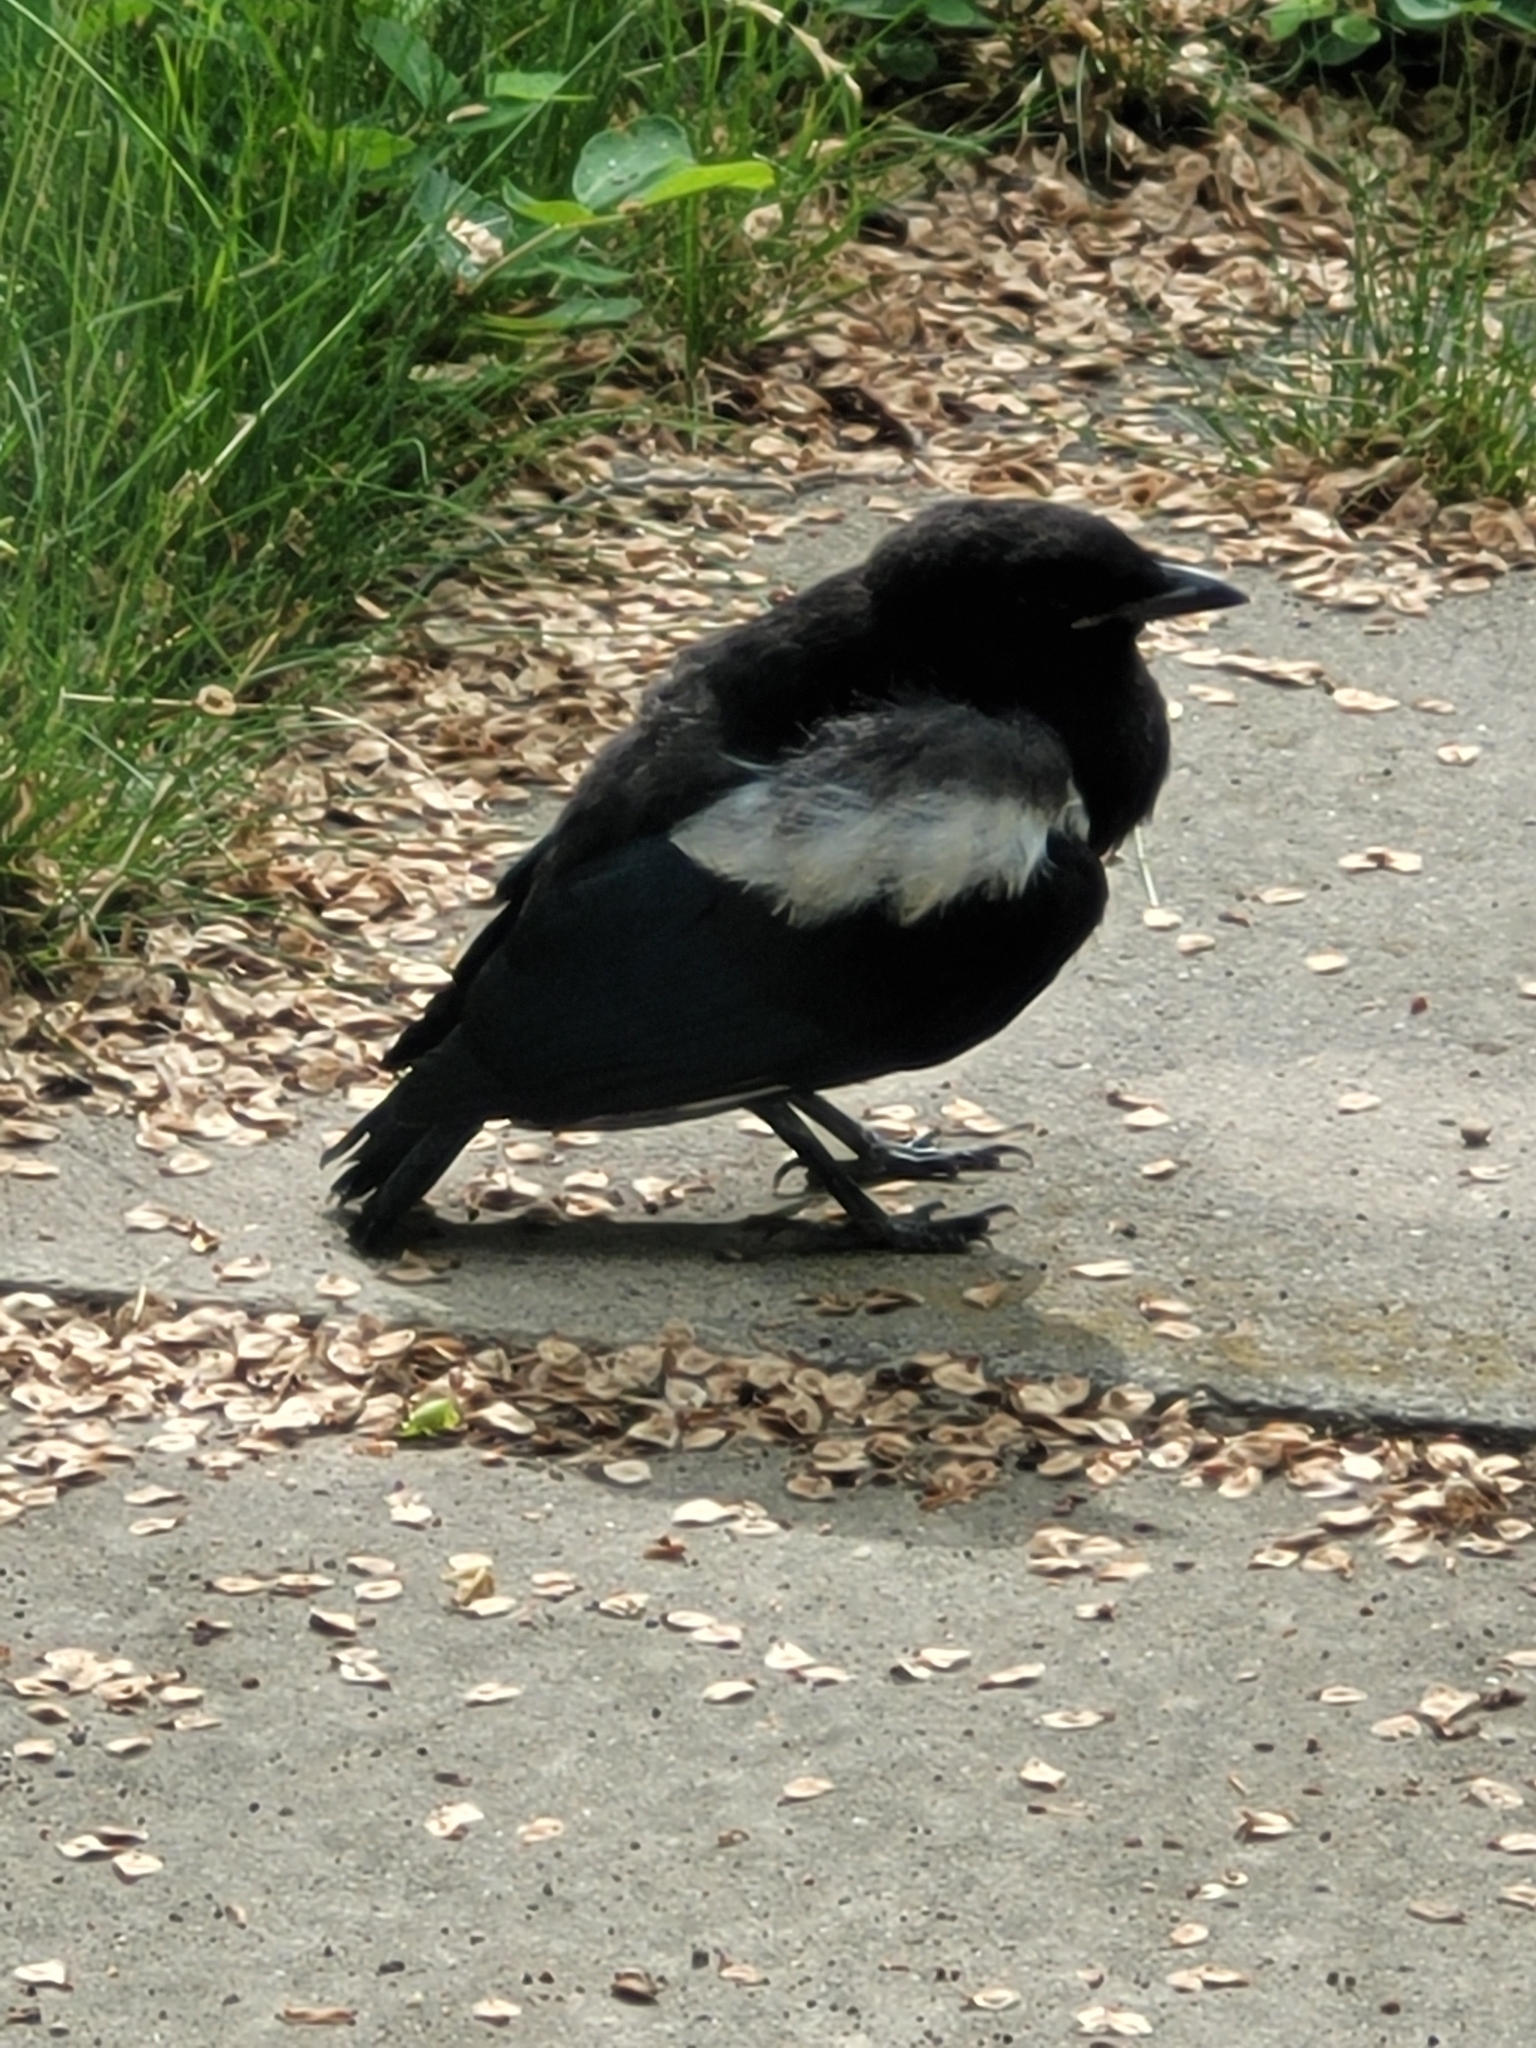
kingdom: Animalia
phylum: Chordata
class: Aves
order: Passeriformes
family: Corvidae
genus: Pica
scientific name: Pica hudsonia
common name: Black-billed magpie
